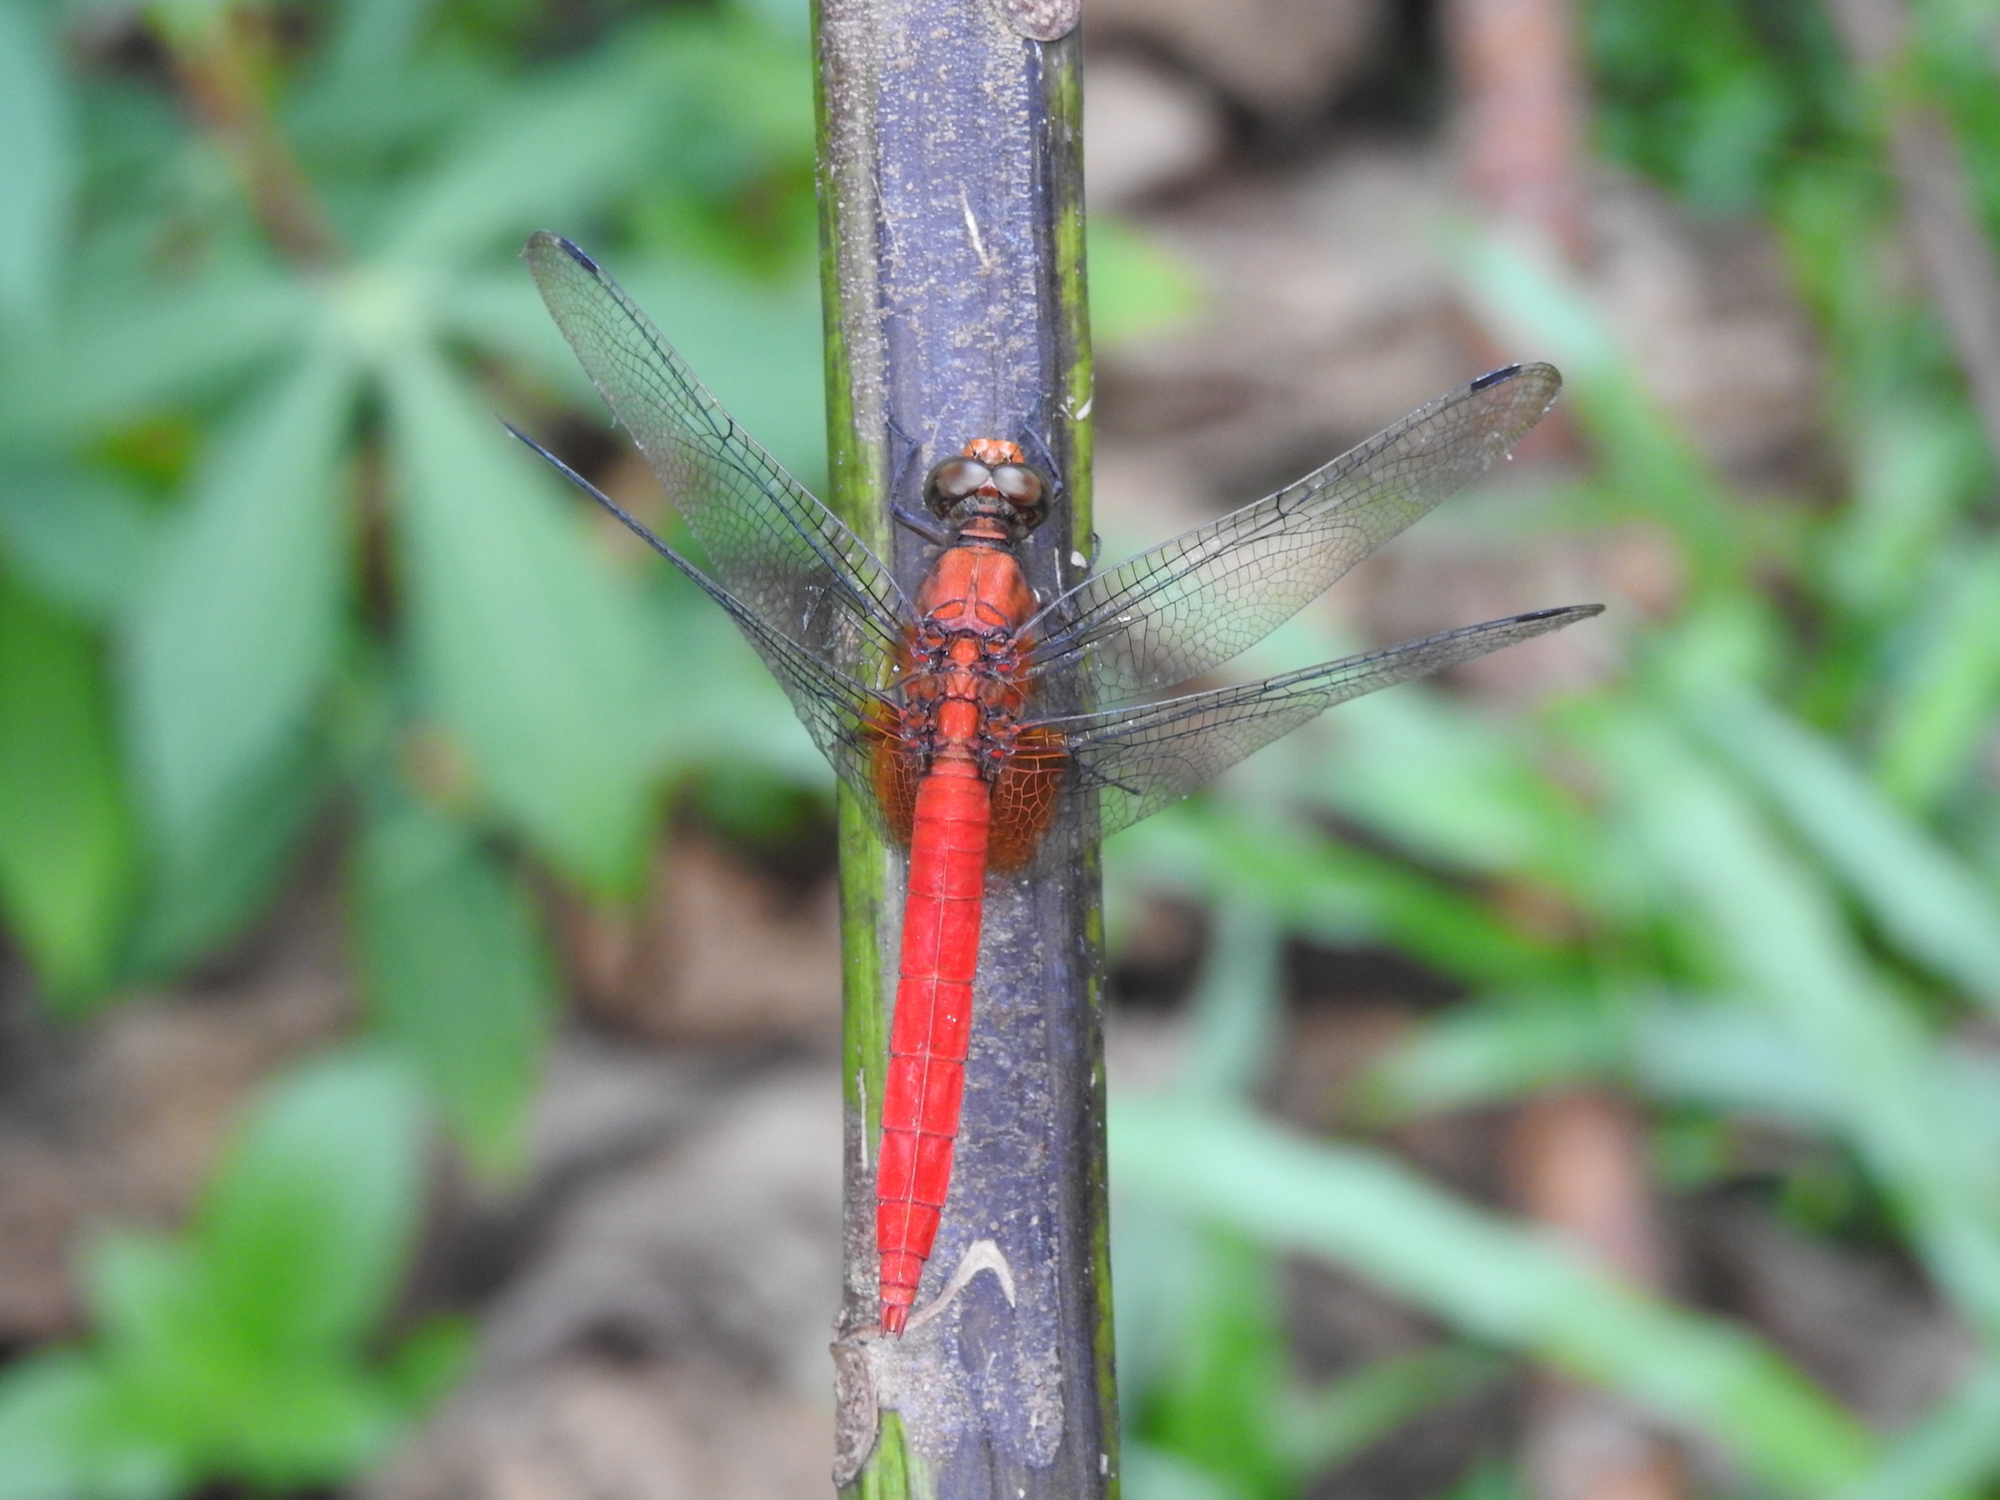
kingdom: Animalia
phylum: Arthropoda
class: Insecta
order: Odonata
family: Libellulidae
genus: Orthetrum
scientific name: Orthetrum testaceum
